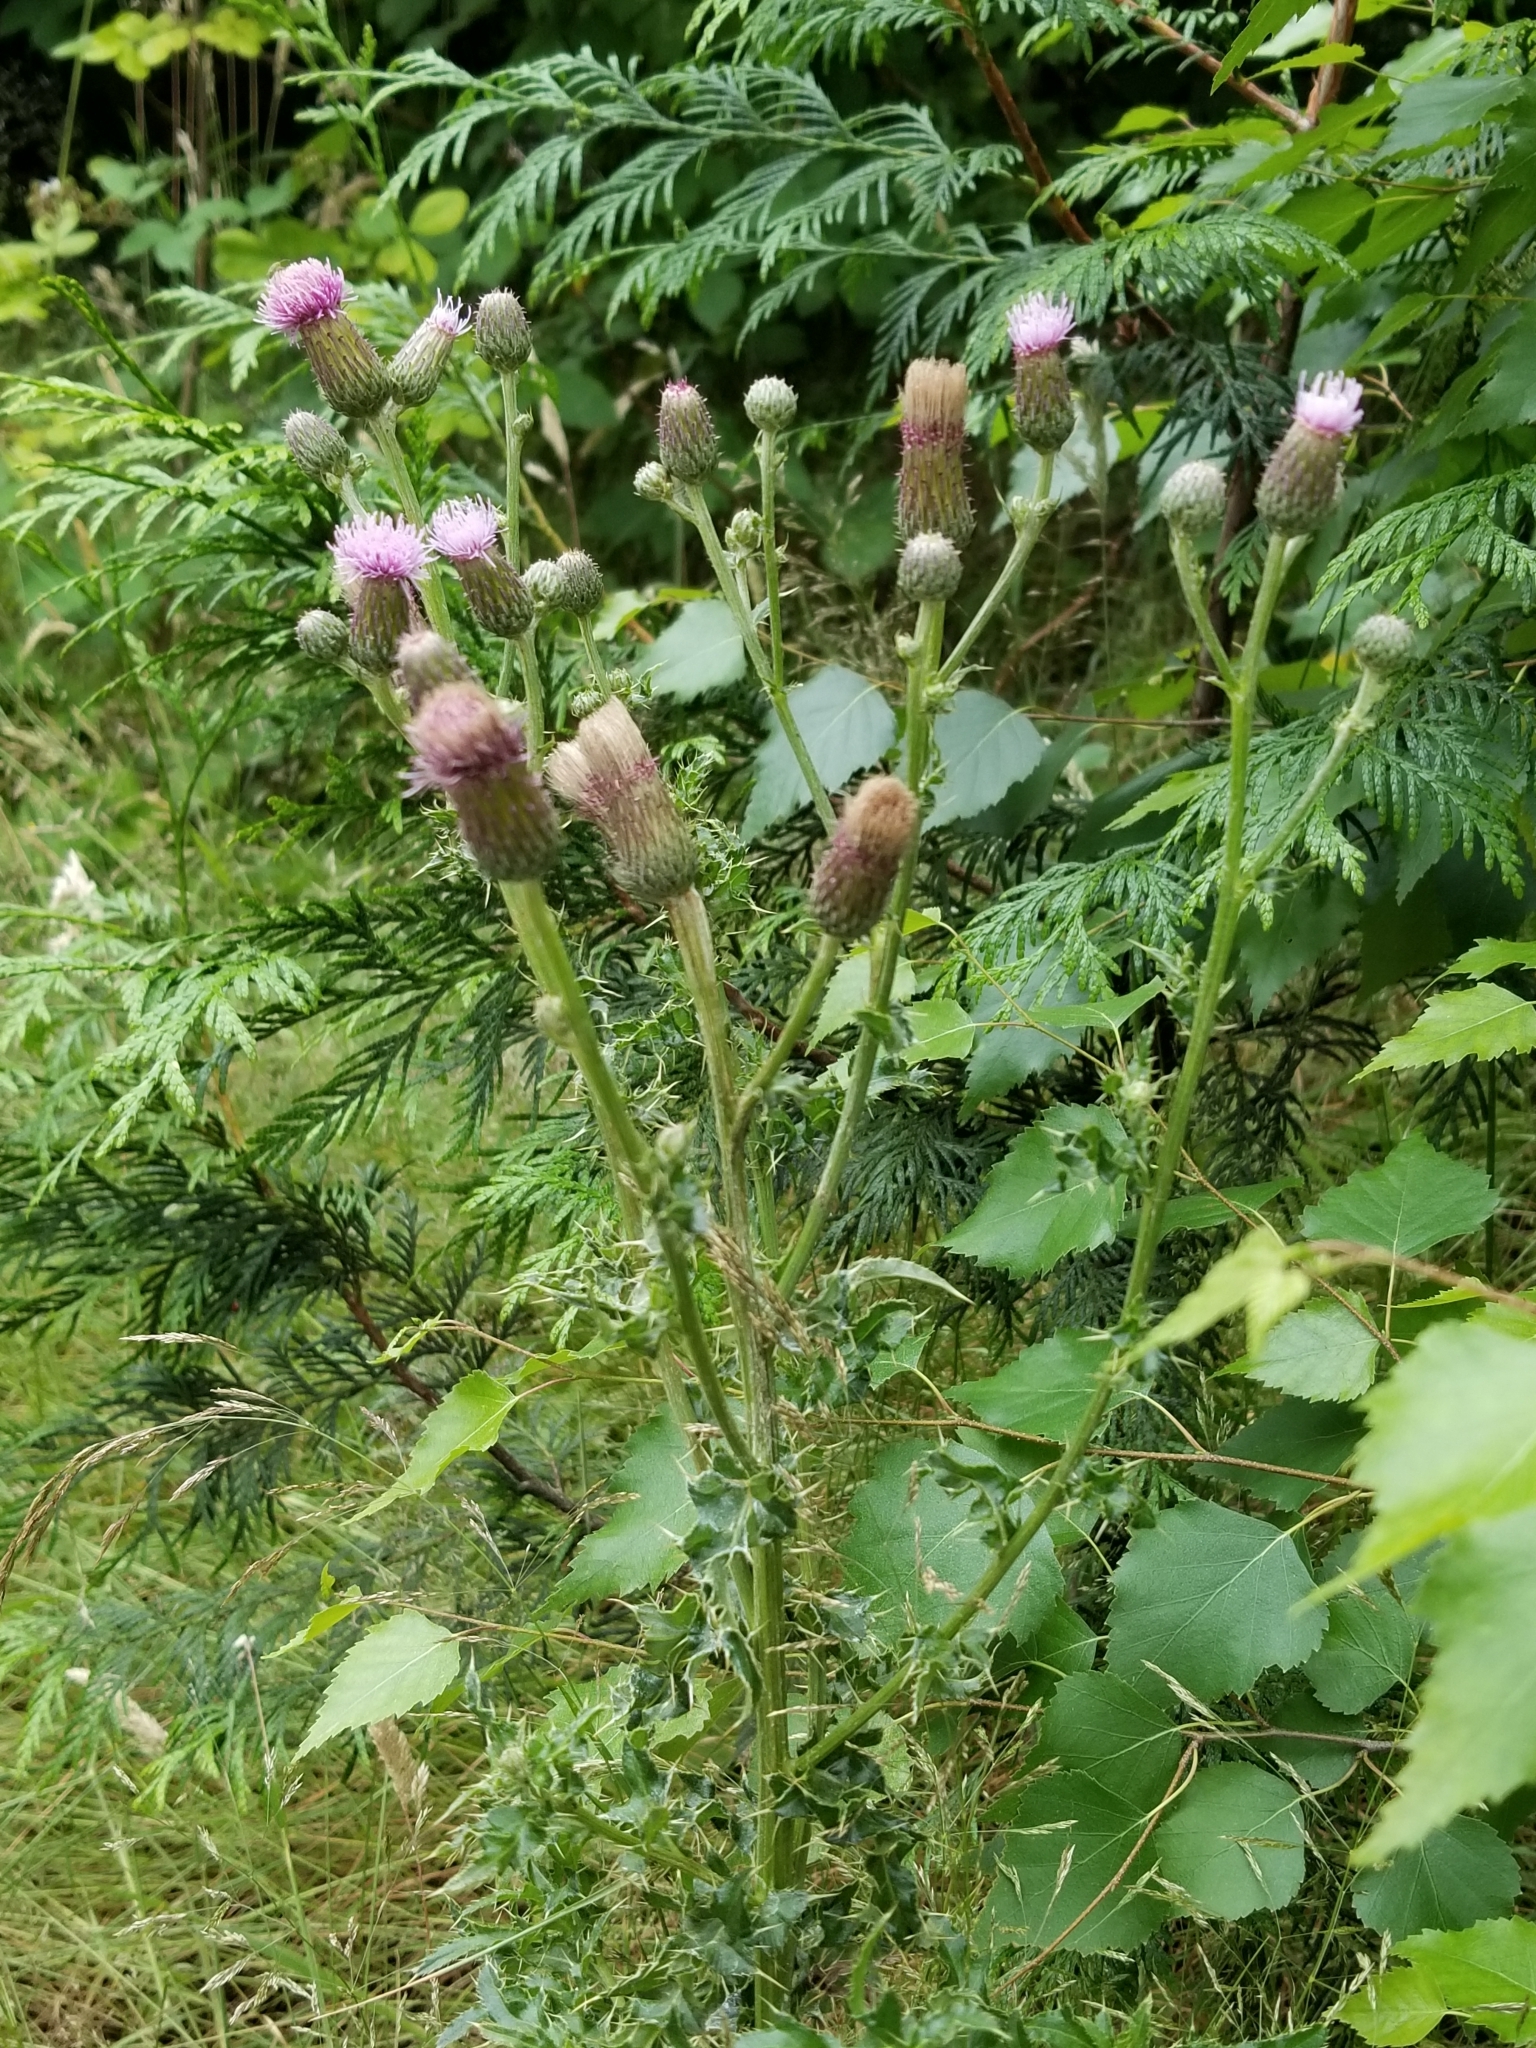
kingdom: Plantae
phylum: Tracheophyta
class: Magnoliopsida
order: Asterales
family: Asteraceae
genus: Cirsium
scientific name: Cirsium arvense
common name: Creeping thistle
